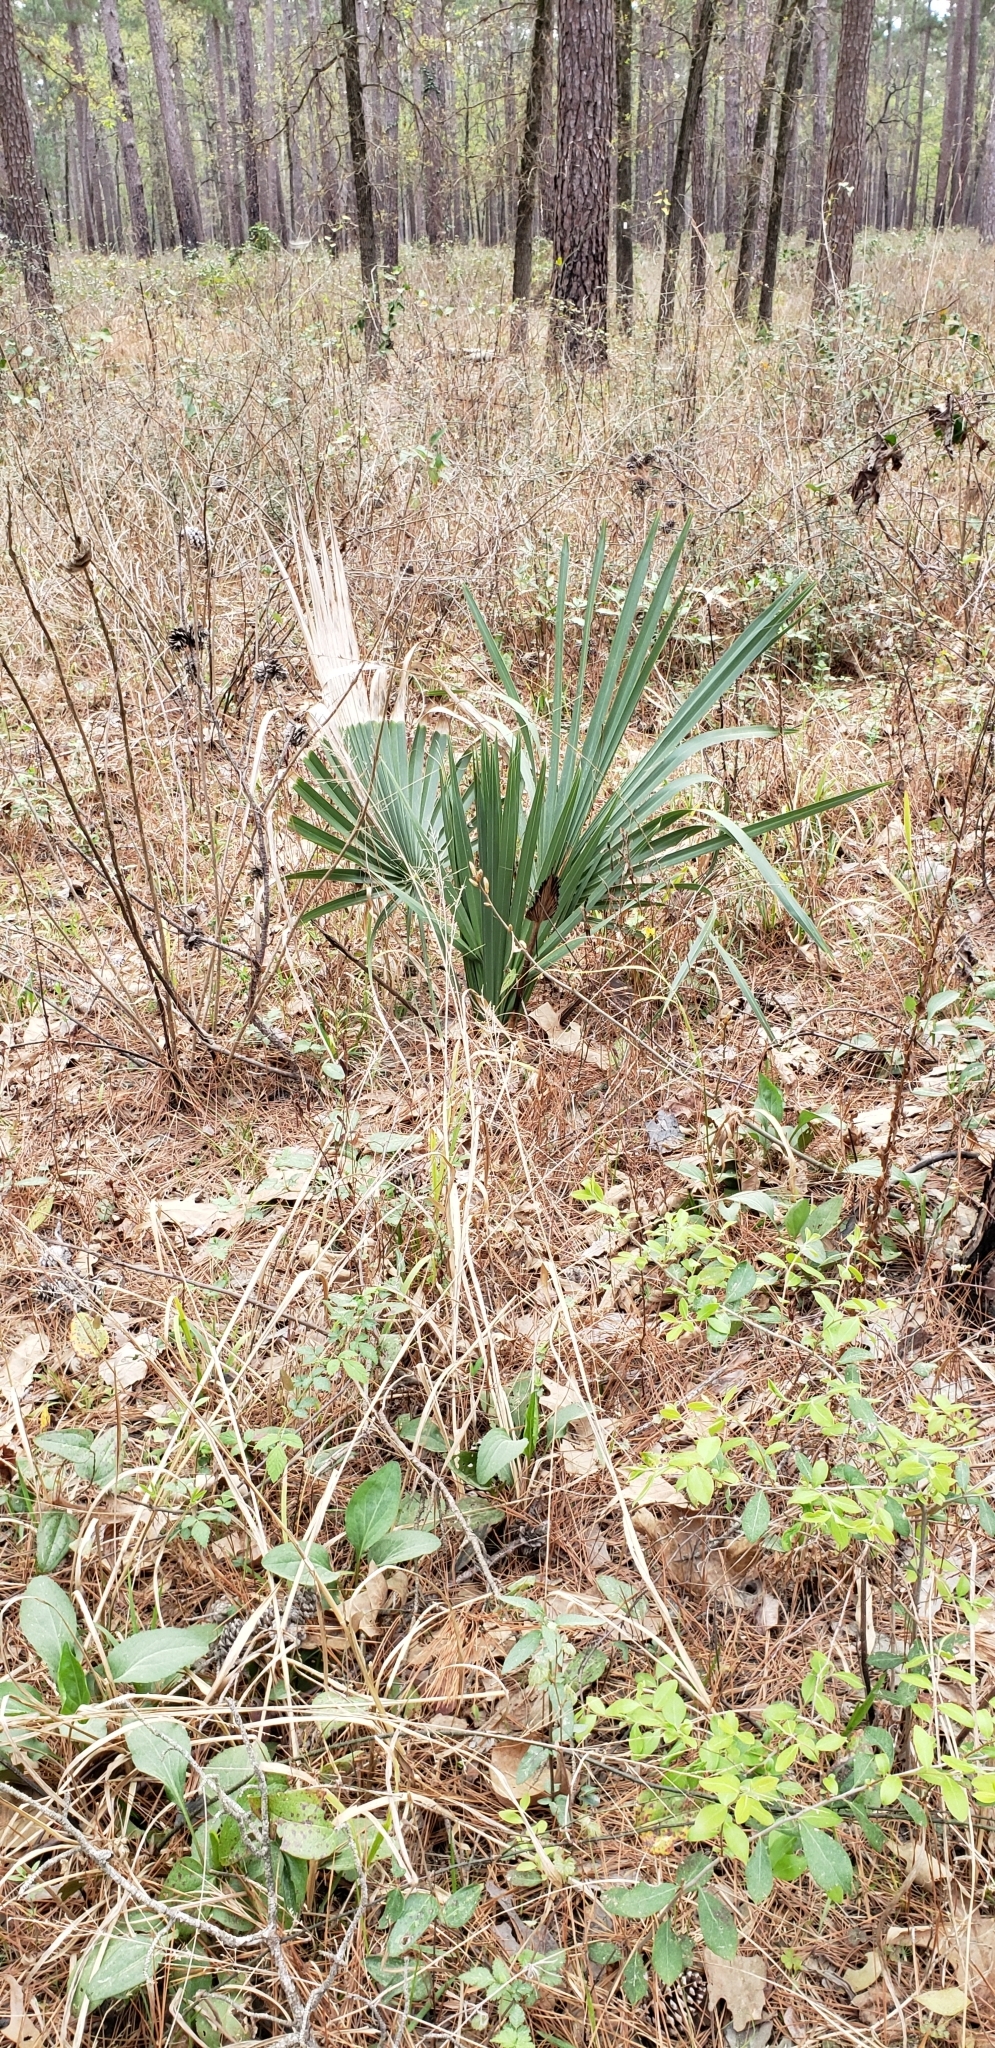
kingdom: Plantae
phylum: Tracheophyta
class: Liliopsida
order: Arecales
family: Arecaceae
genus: Sabal
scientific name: Sabal minor
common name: Dwarf palmetto
